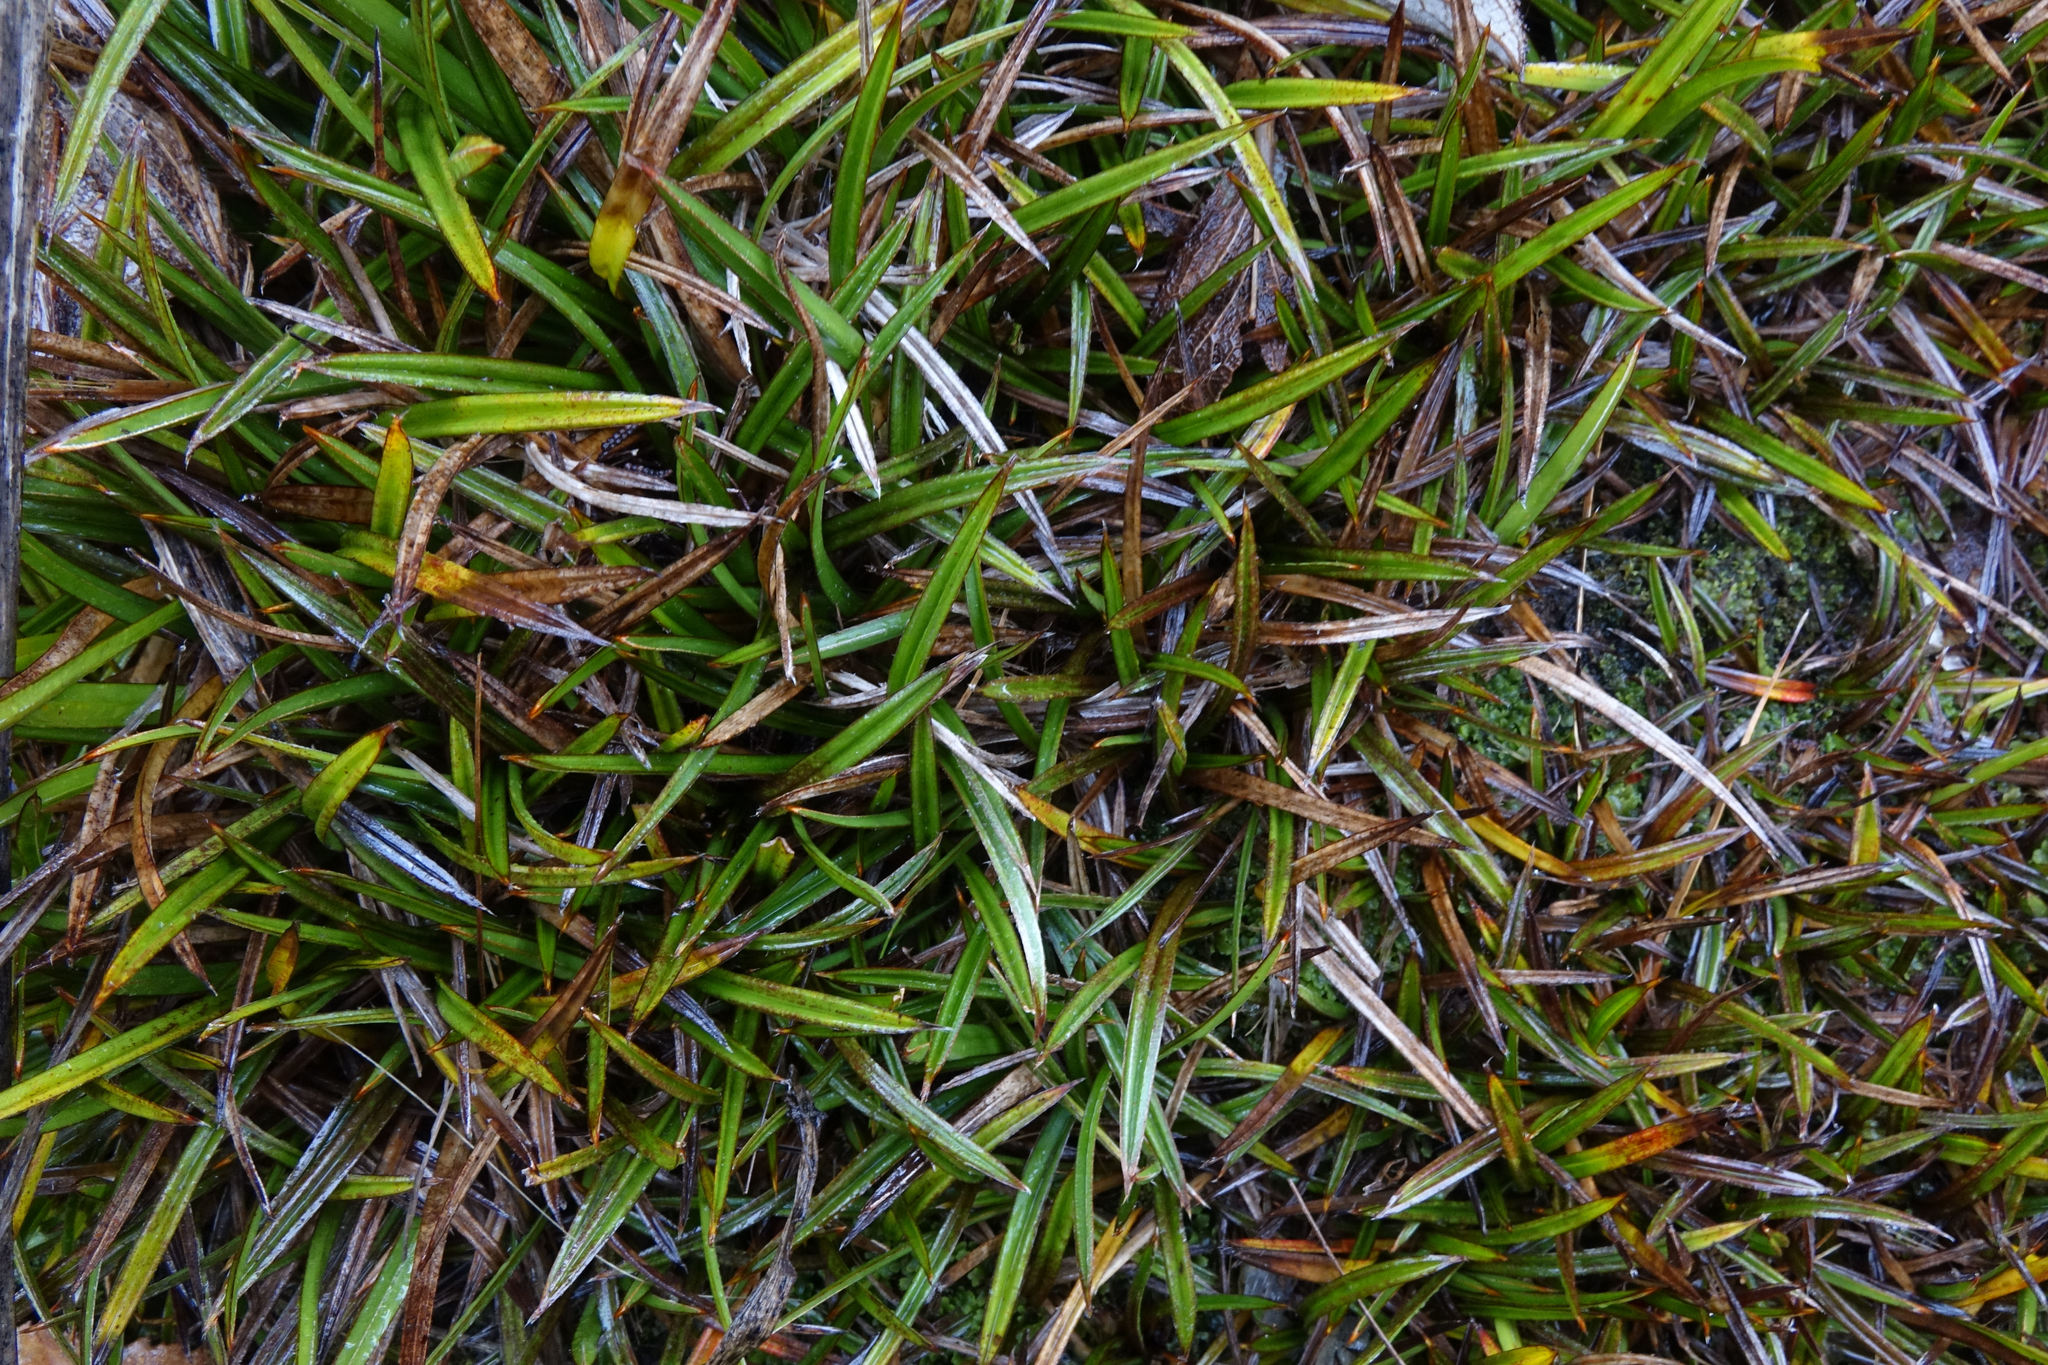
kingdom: Plantae
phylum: Tracheophyta
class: Liliopsida
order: Asparagales
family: Asteliaceae
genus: Astelia
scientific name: Astelia linearis
